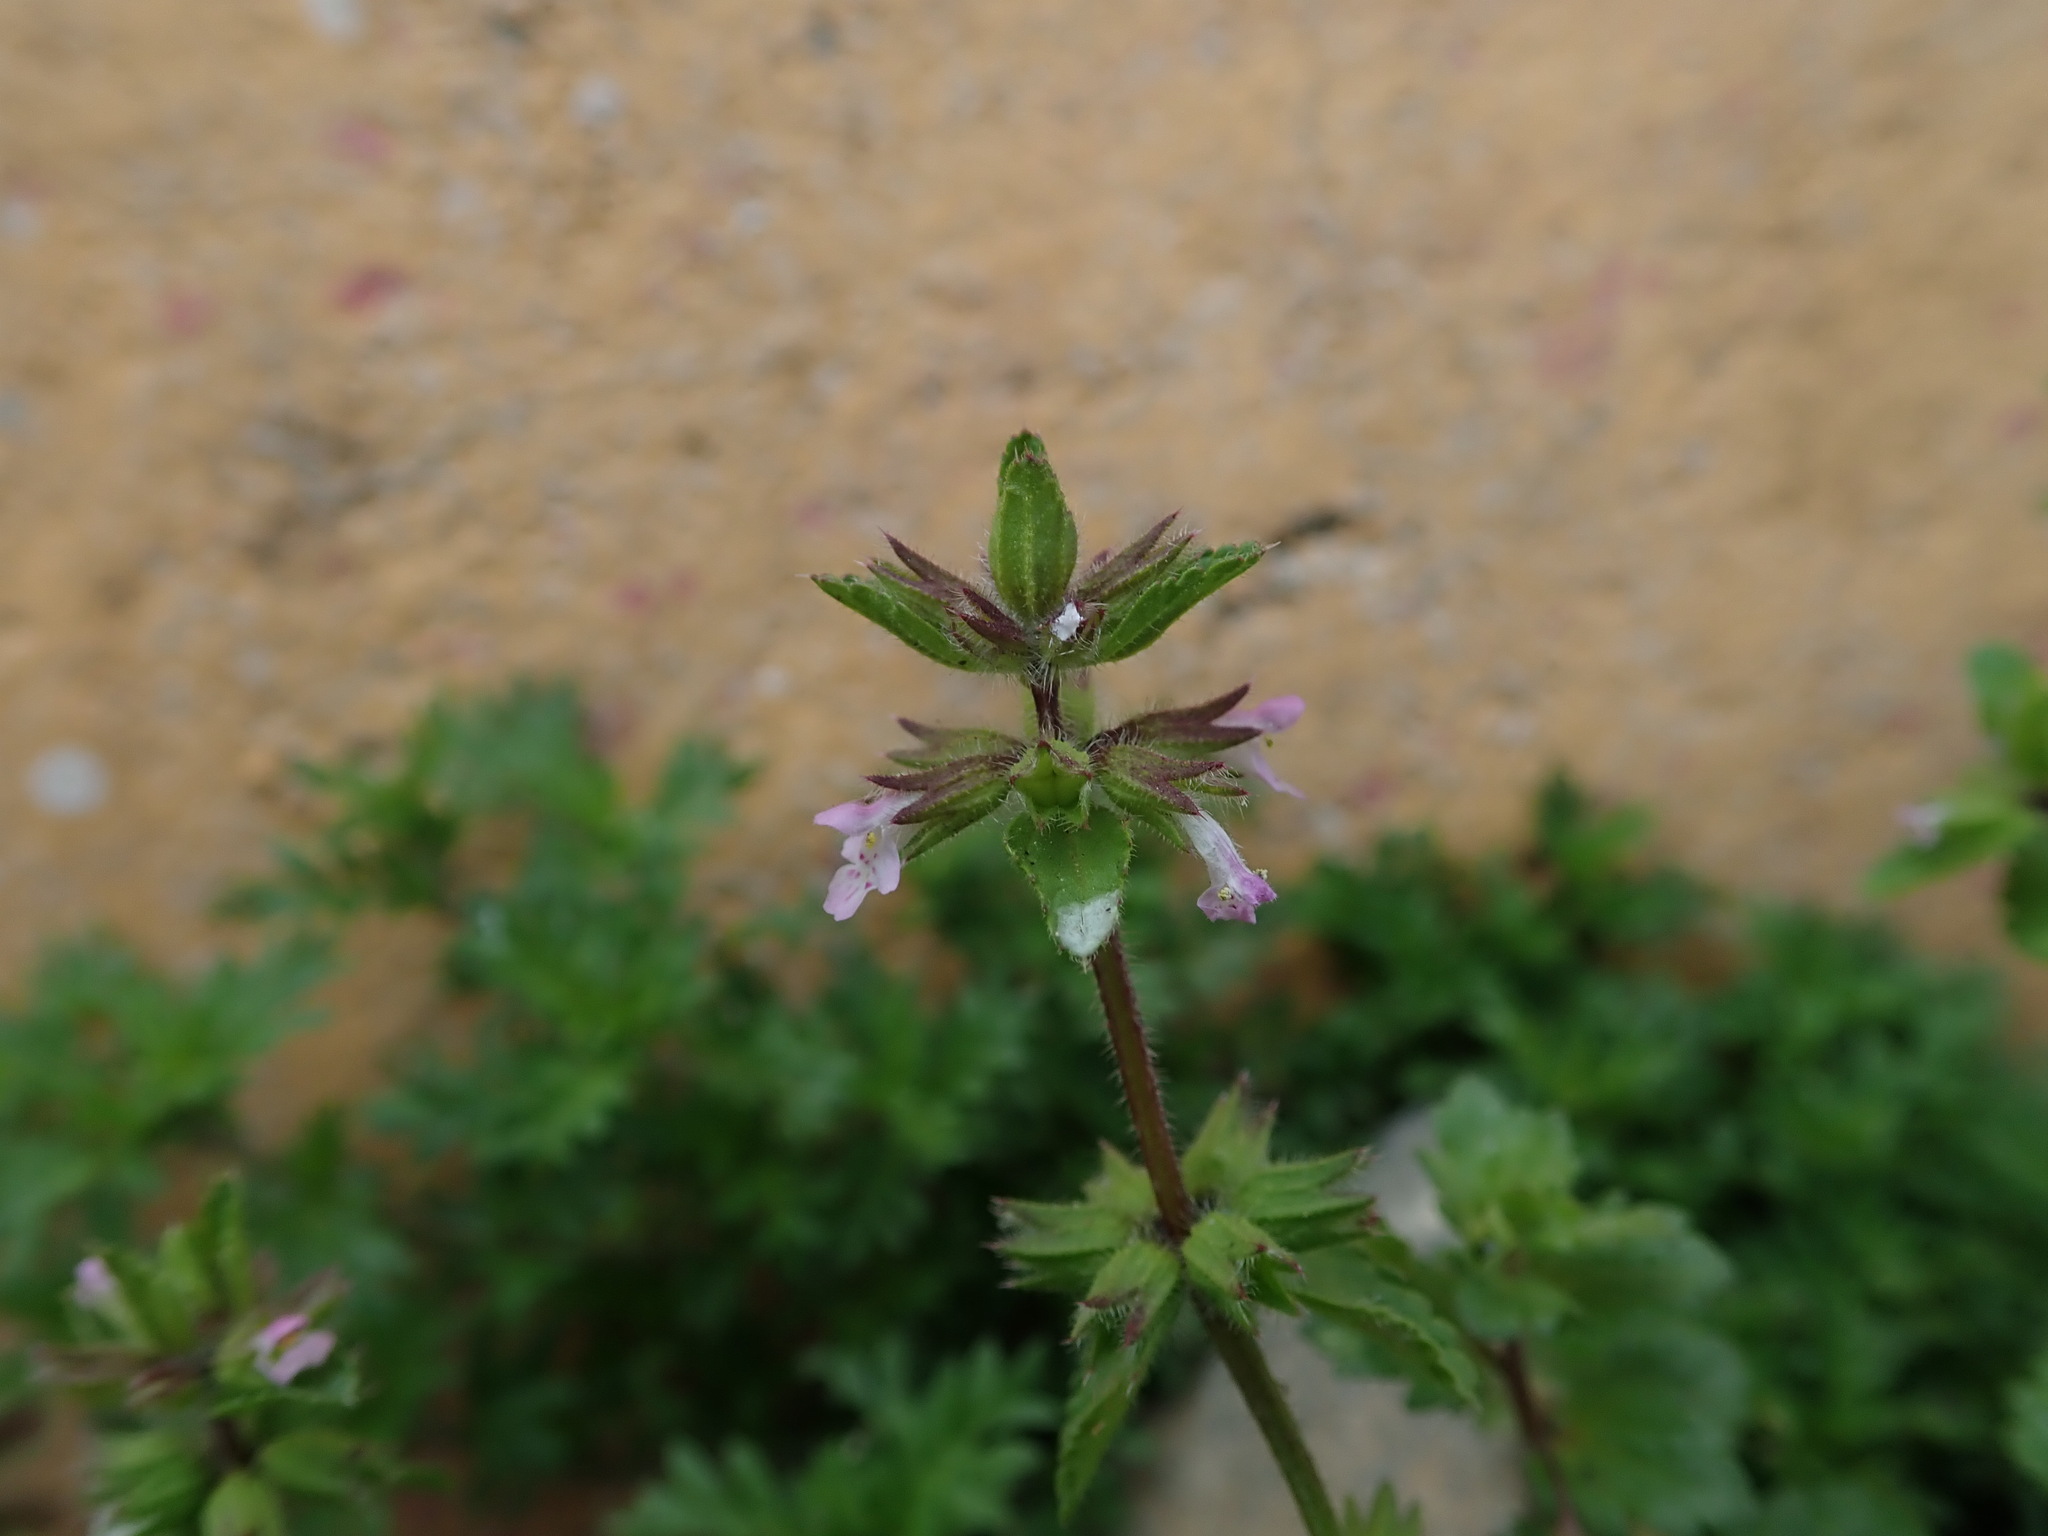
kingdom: Plantae
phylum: Tracheophyta
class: Magnoliopsida
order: Lamiales
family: Lamiaceae
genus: Stachys
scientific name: Stachys arvensis
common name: Field woundwort
